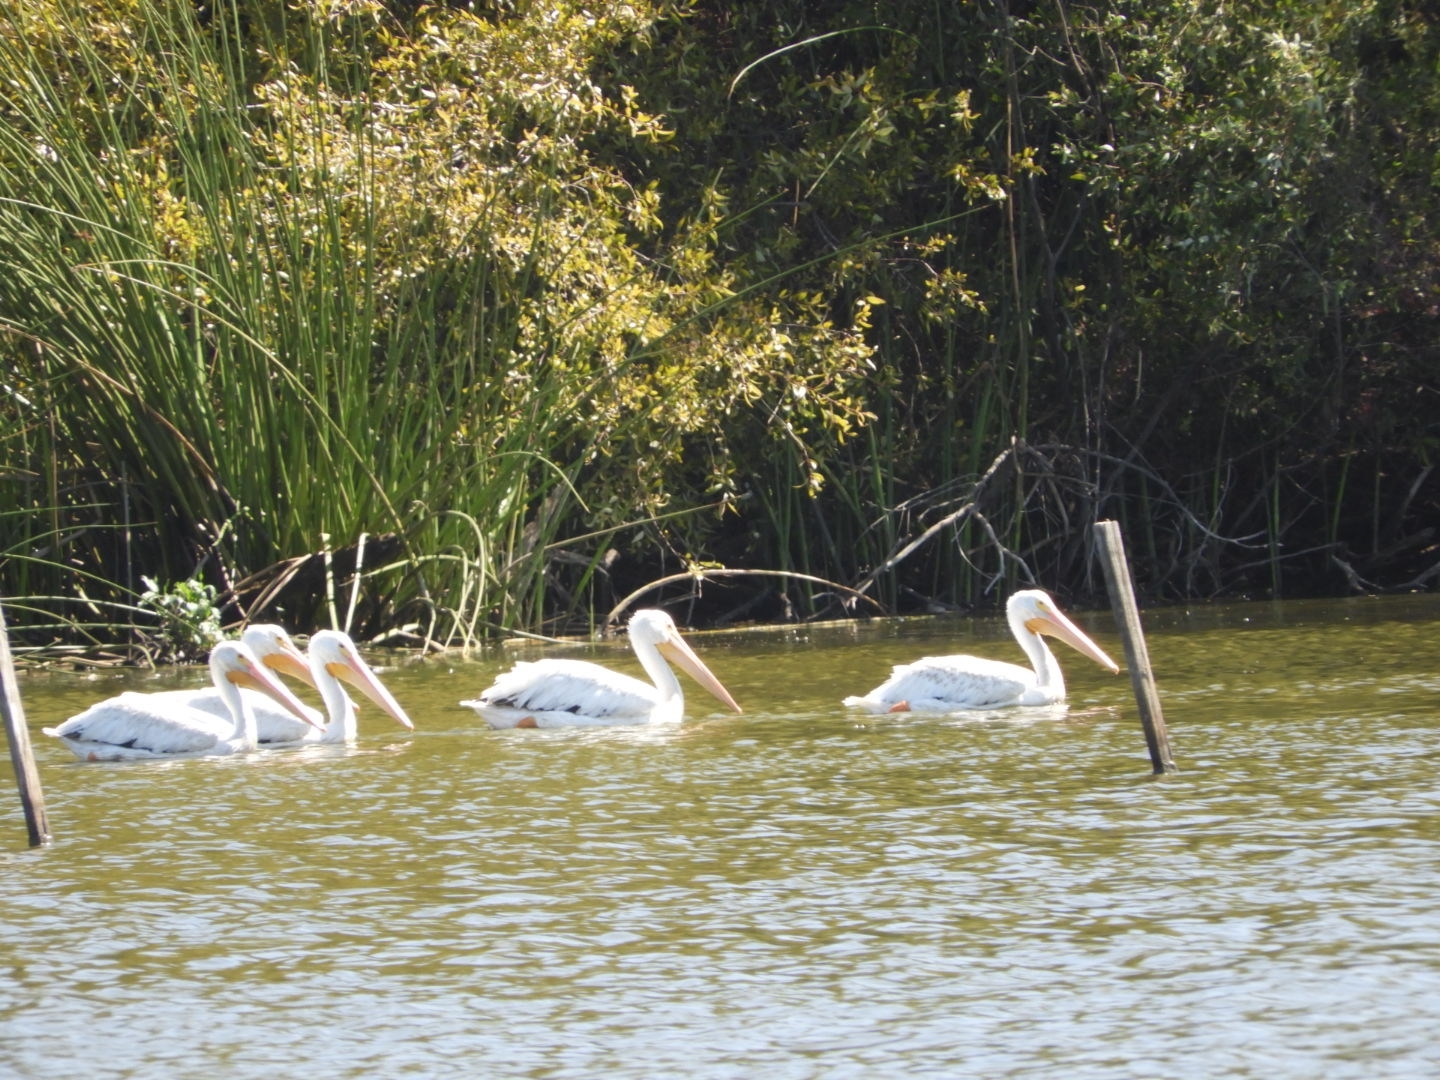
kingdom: Animalia
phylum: Chordata
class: Aves
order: Pelecaniformes
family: Pelecanidae
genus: Pelecanus
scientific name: Pelecanus erythrorhynchos
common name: American white pelican
